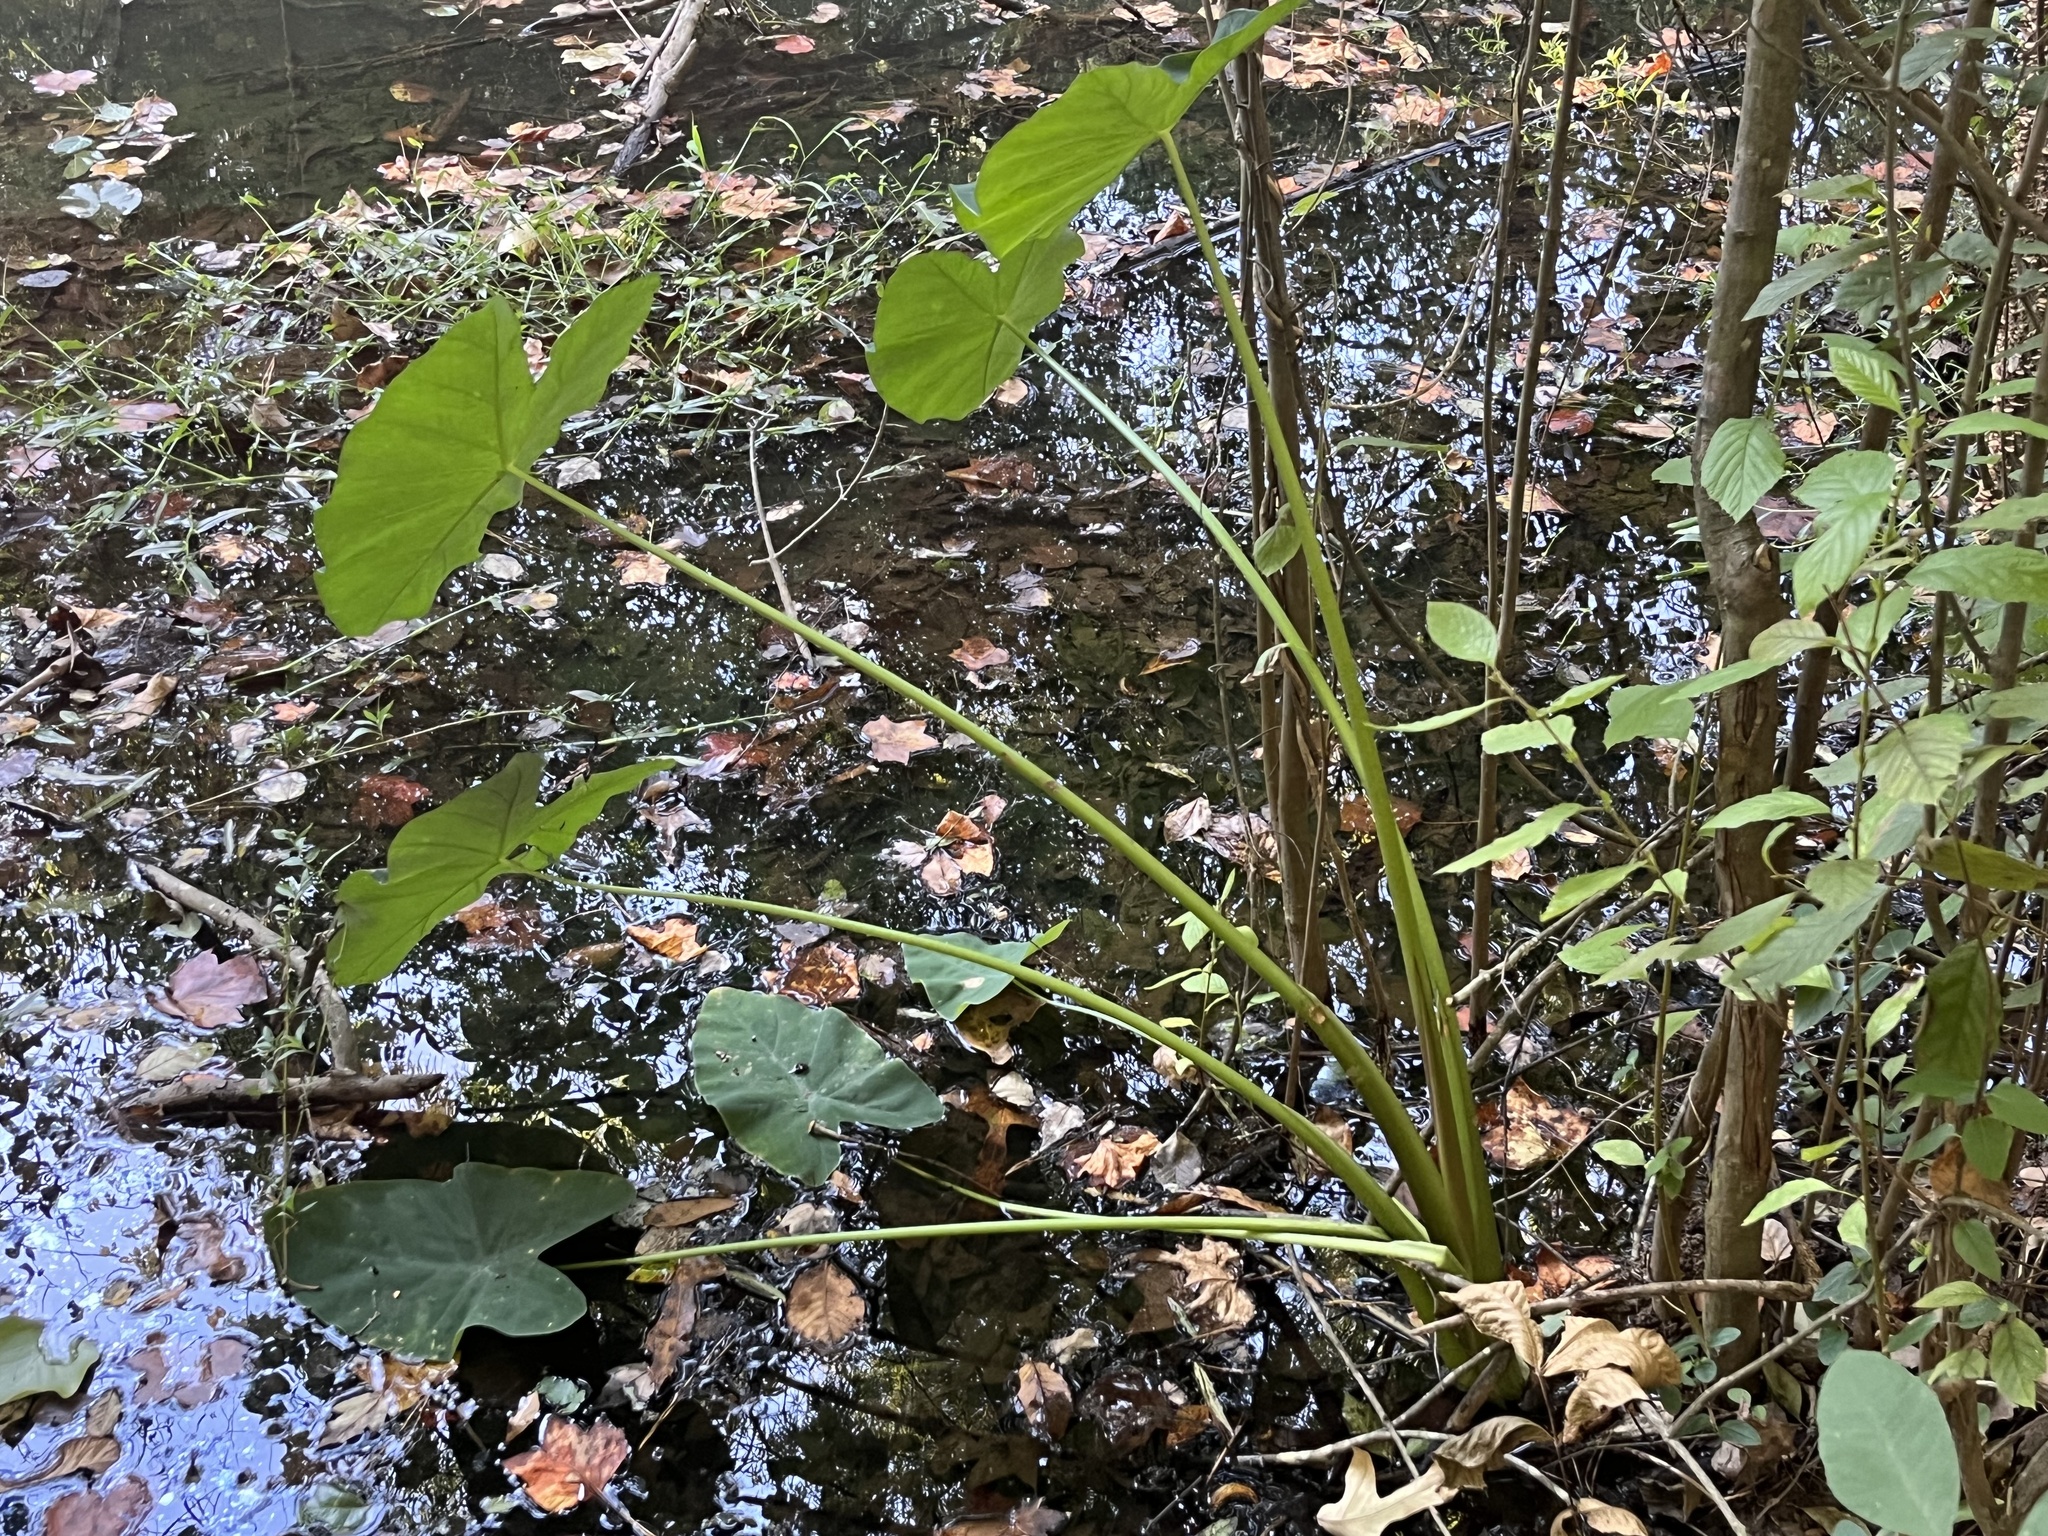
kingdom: Plantae
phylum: Tracheophyta
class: Liliopsida
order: Alismatales
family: Araceae
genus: Colocasia
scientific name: Colocasia esculenta
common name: Taro
